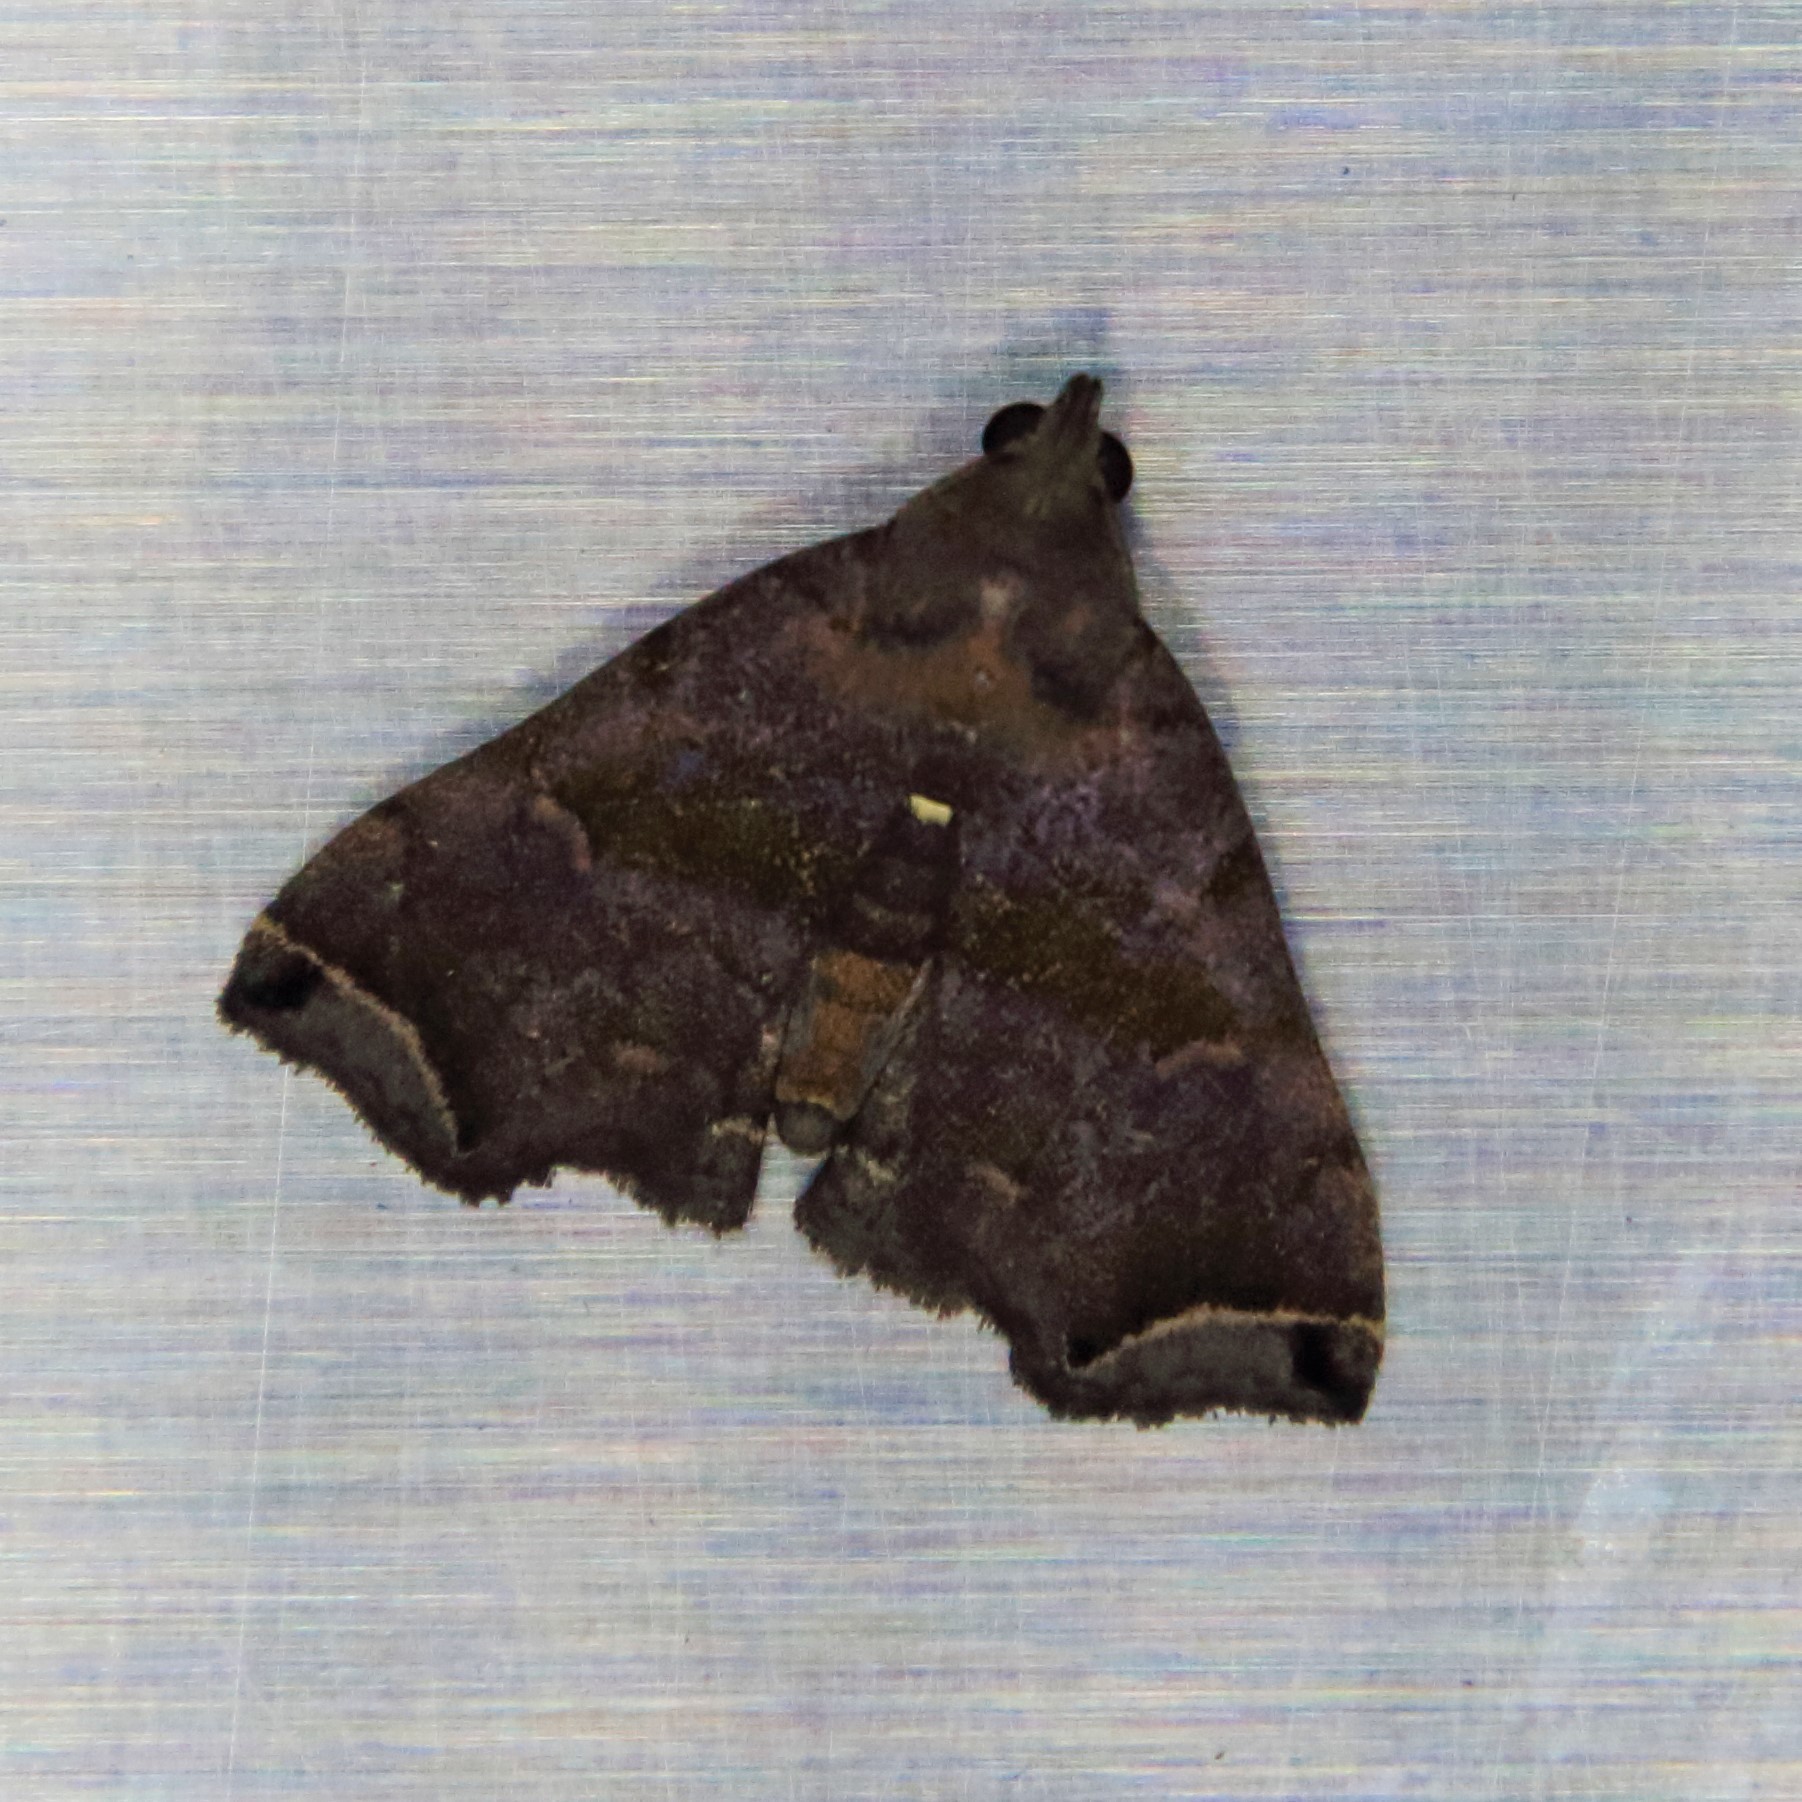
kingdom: Animalia
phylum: Arthropoda
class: Insecta
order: Lepidoptera
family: Erebidae
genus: Polypogon
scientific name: Polypogon biasalis
